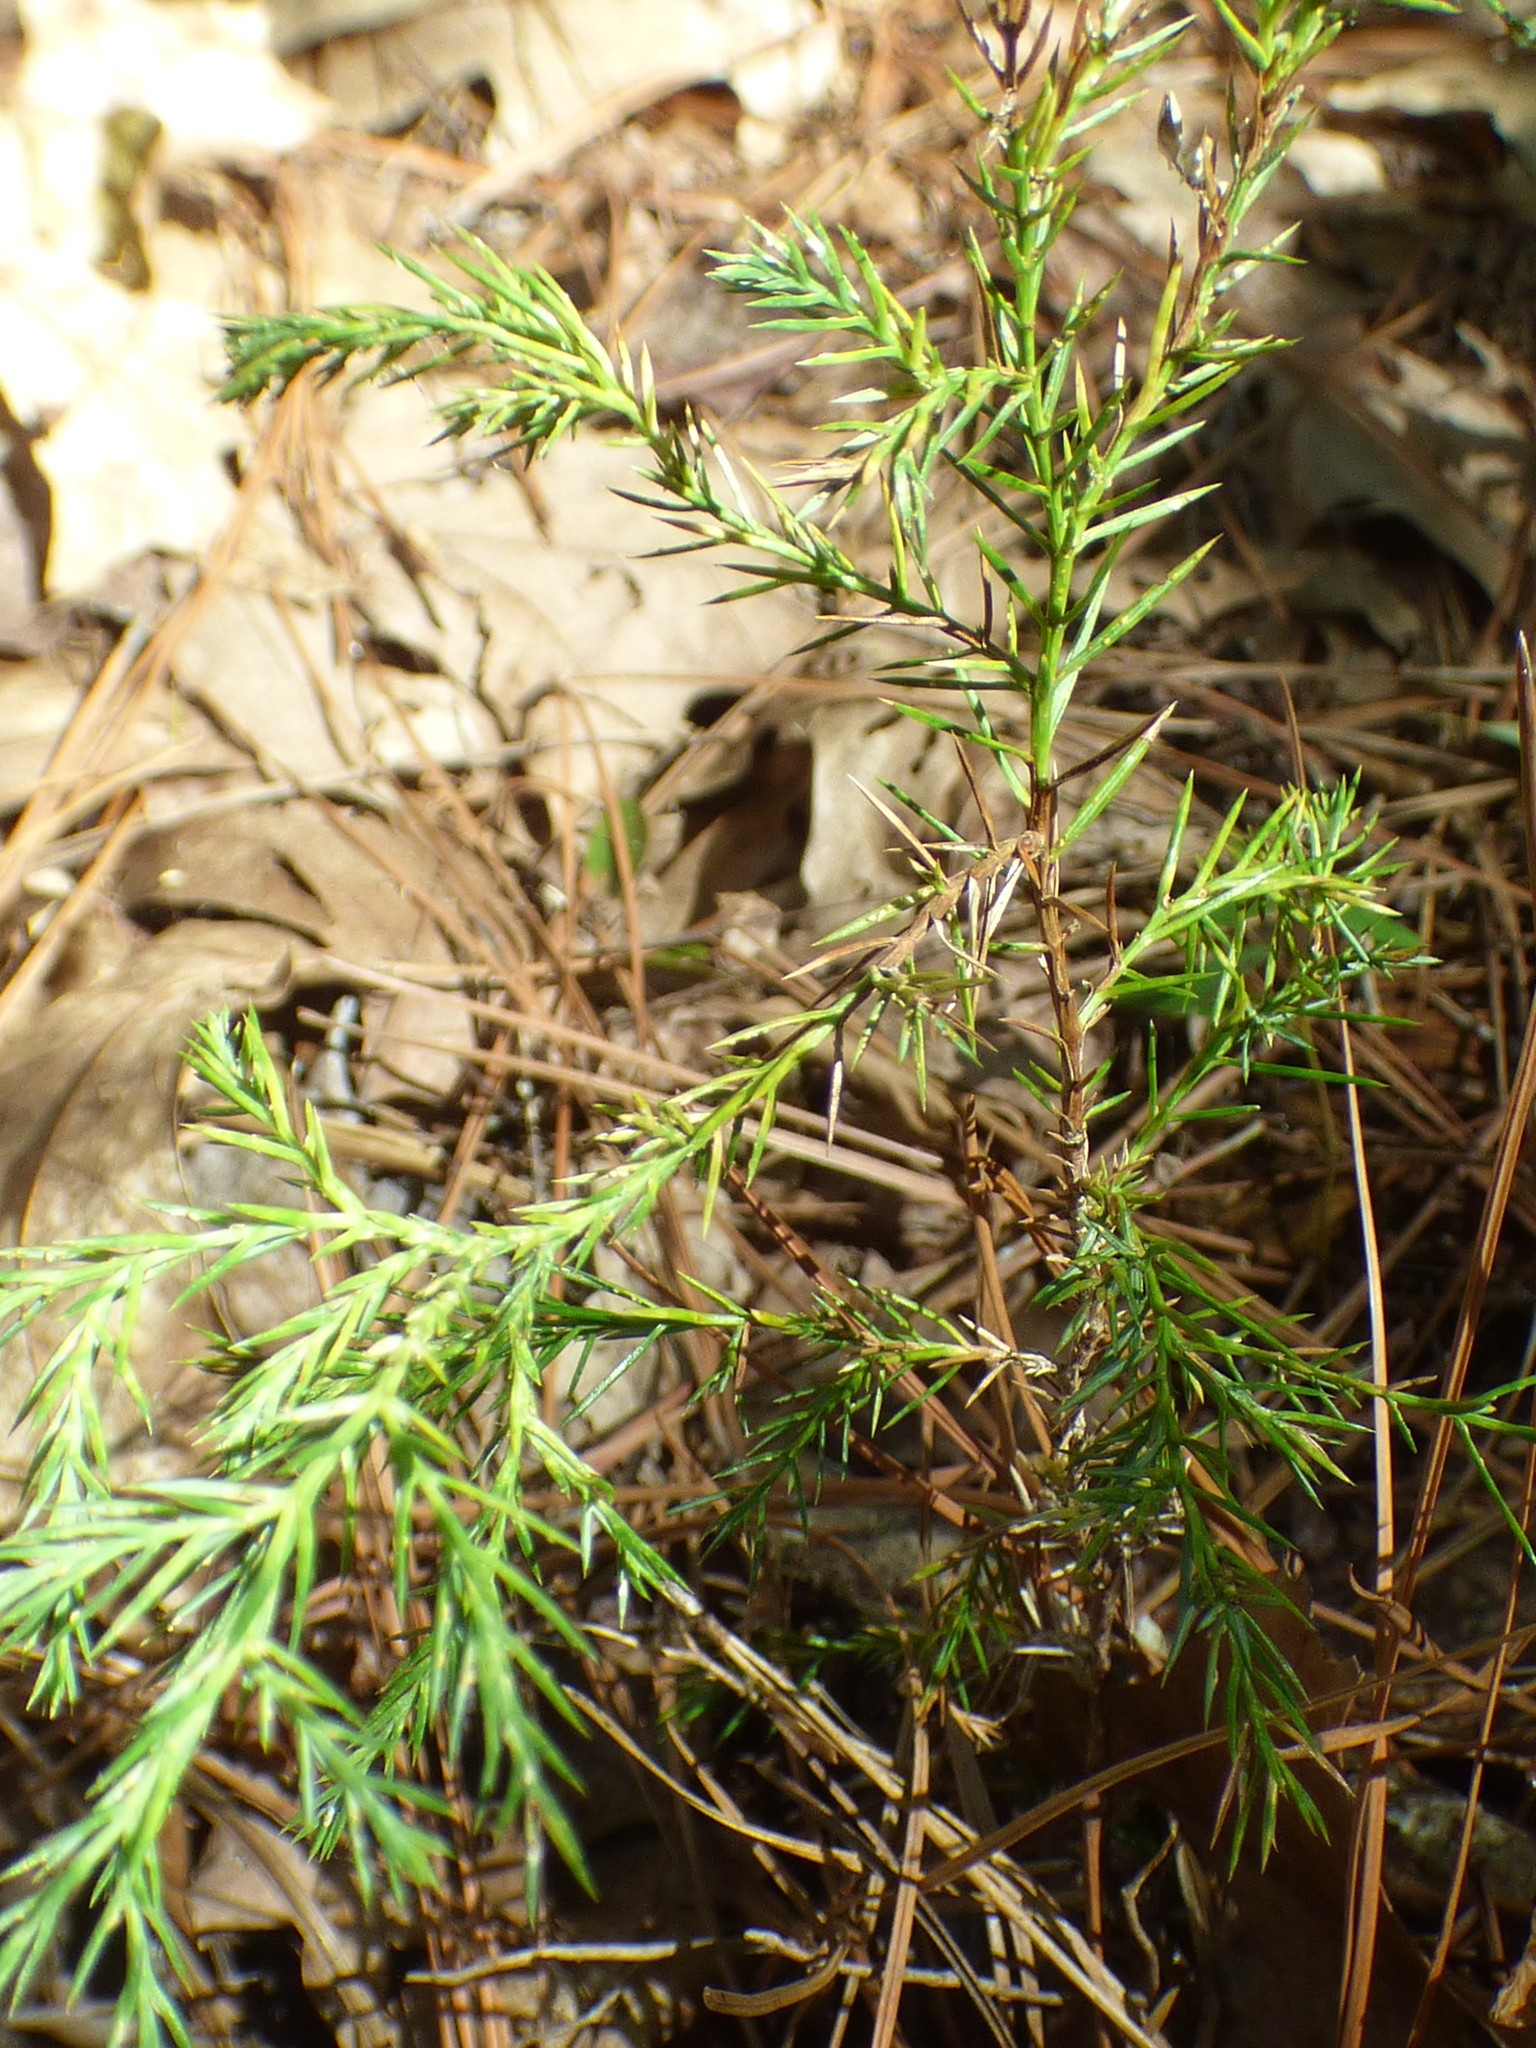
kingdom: Plantae
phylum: Tracheophyta
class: Pinopsida
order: Pinales
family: Cupressaceae
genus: Juniperus
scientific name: Juniperus virginiana
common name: Red juniper
